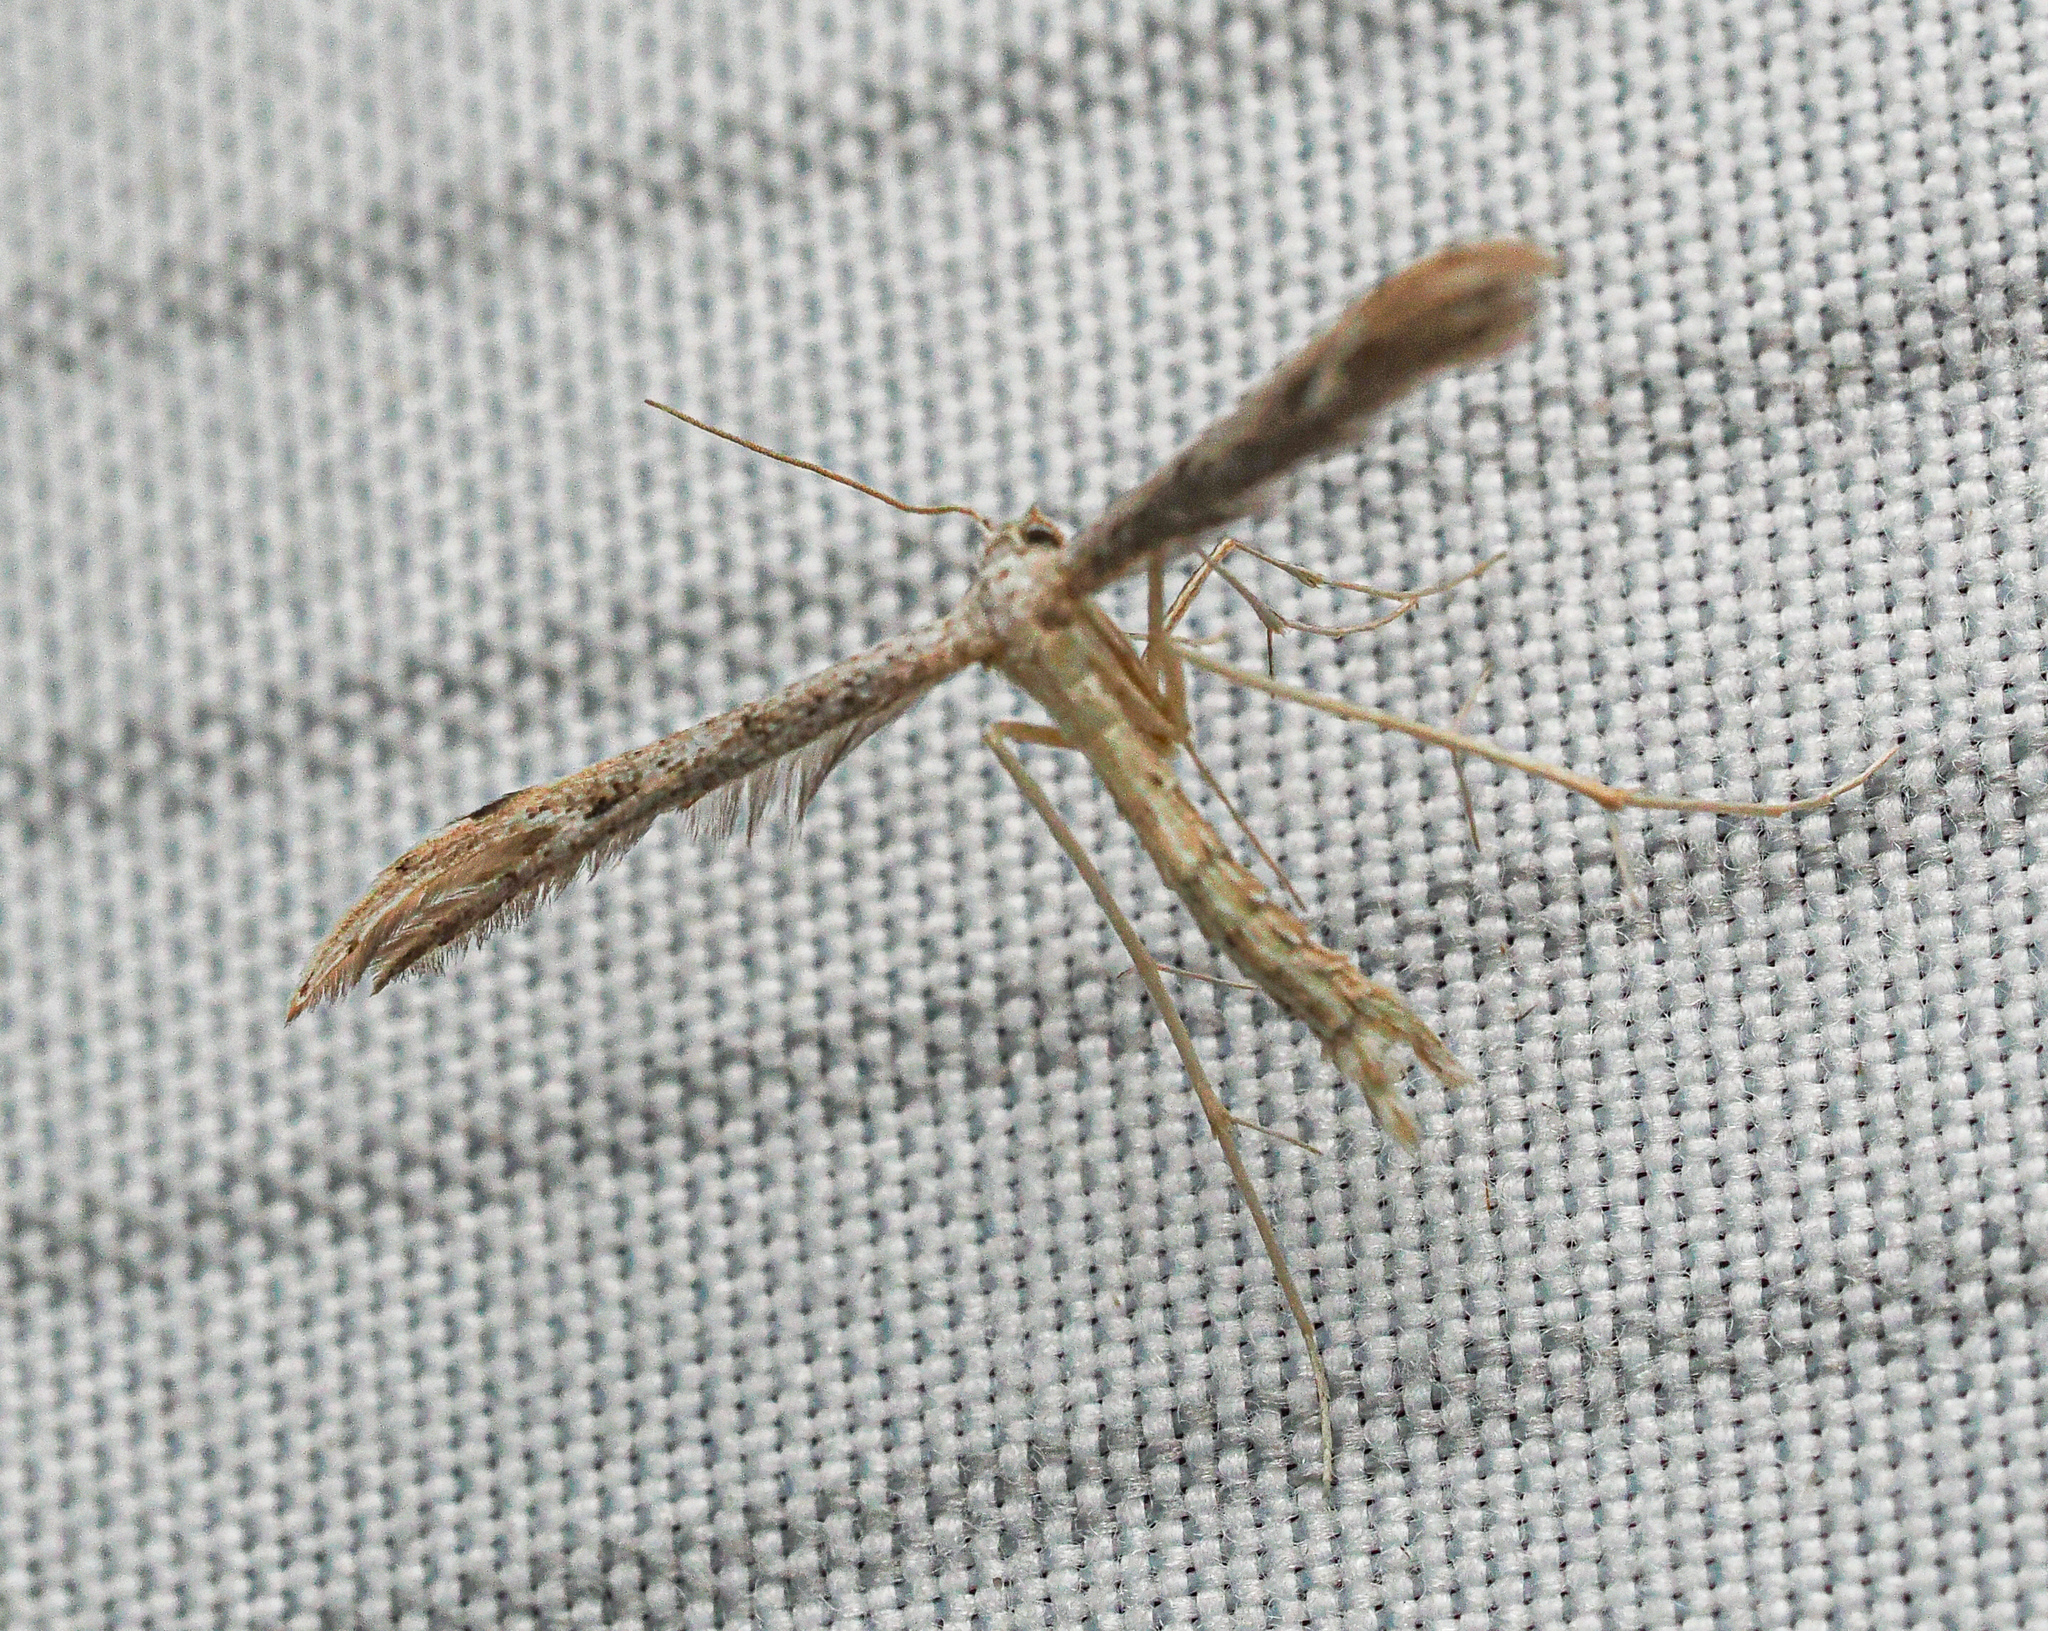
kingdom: Animalia
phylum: Arthropoda
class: Insecta
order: Lepidoptera
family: Pterophoridae
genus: Pselnophorus
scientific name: Pselnophorus belfragei
